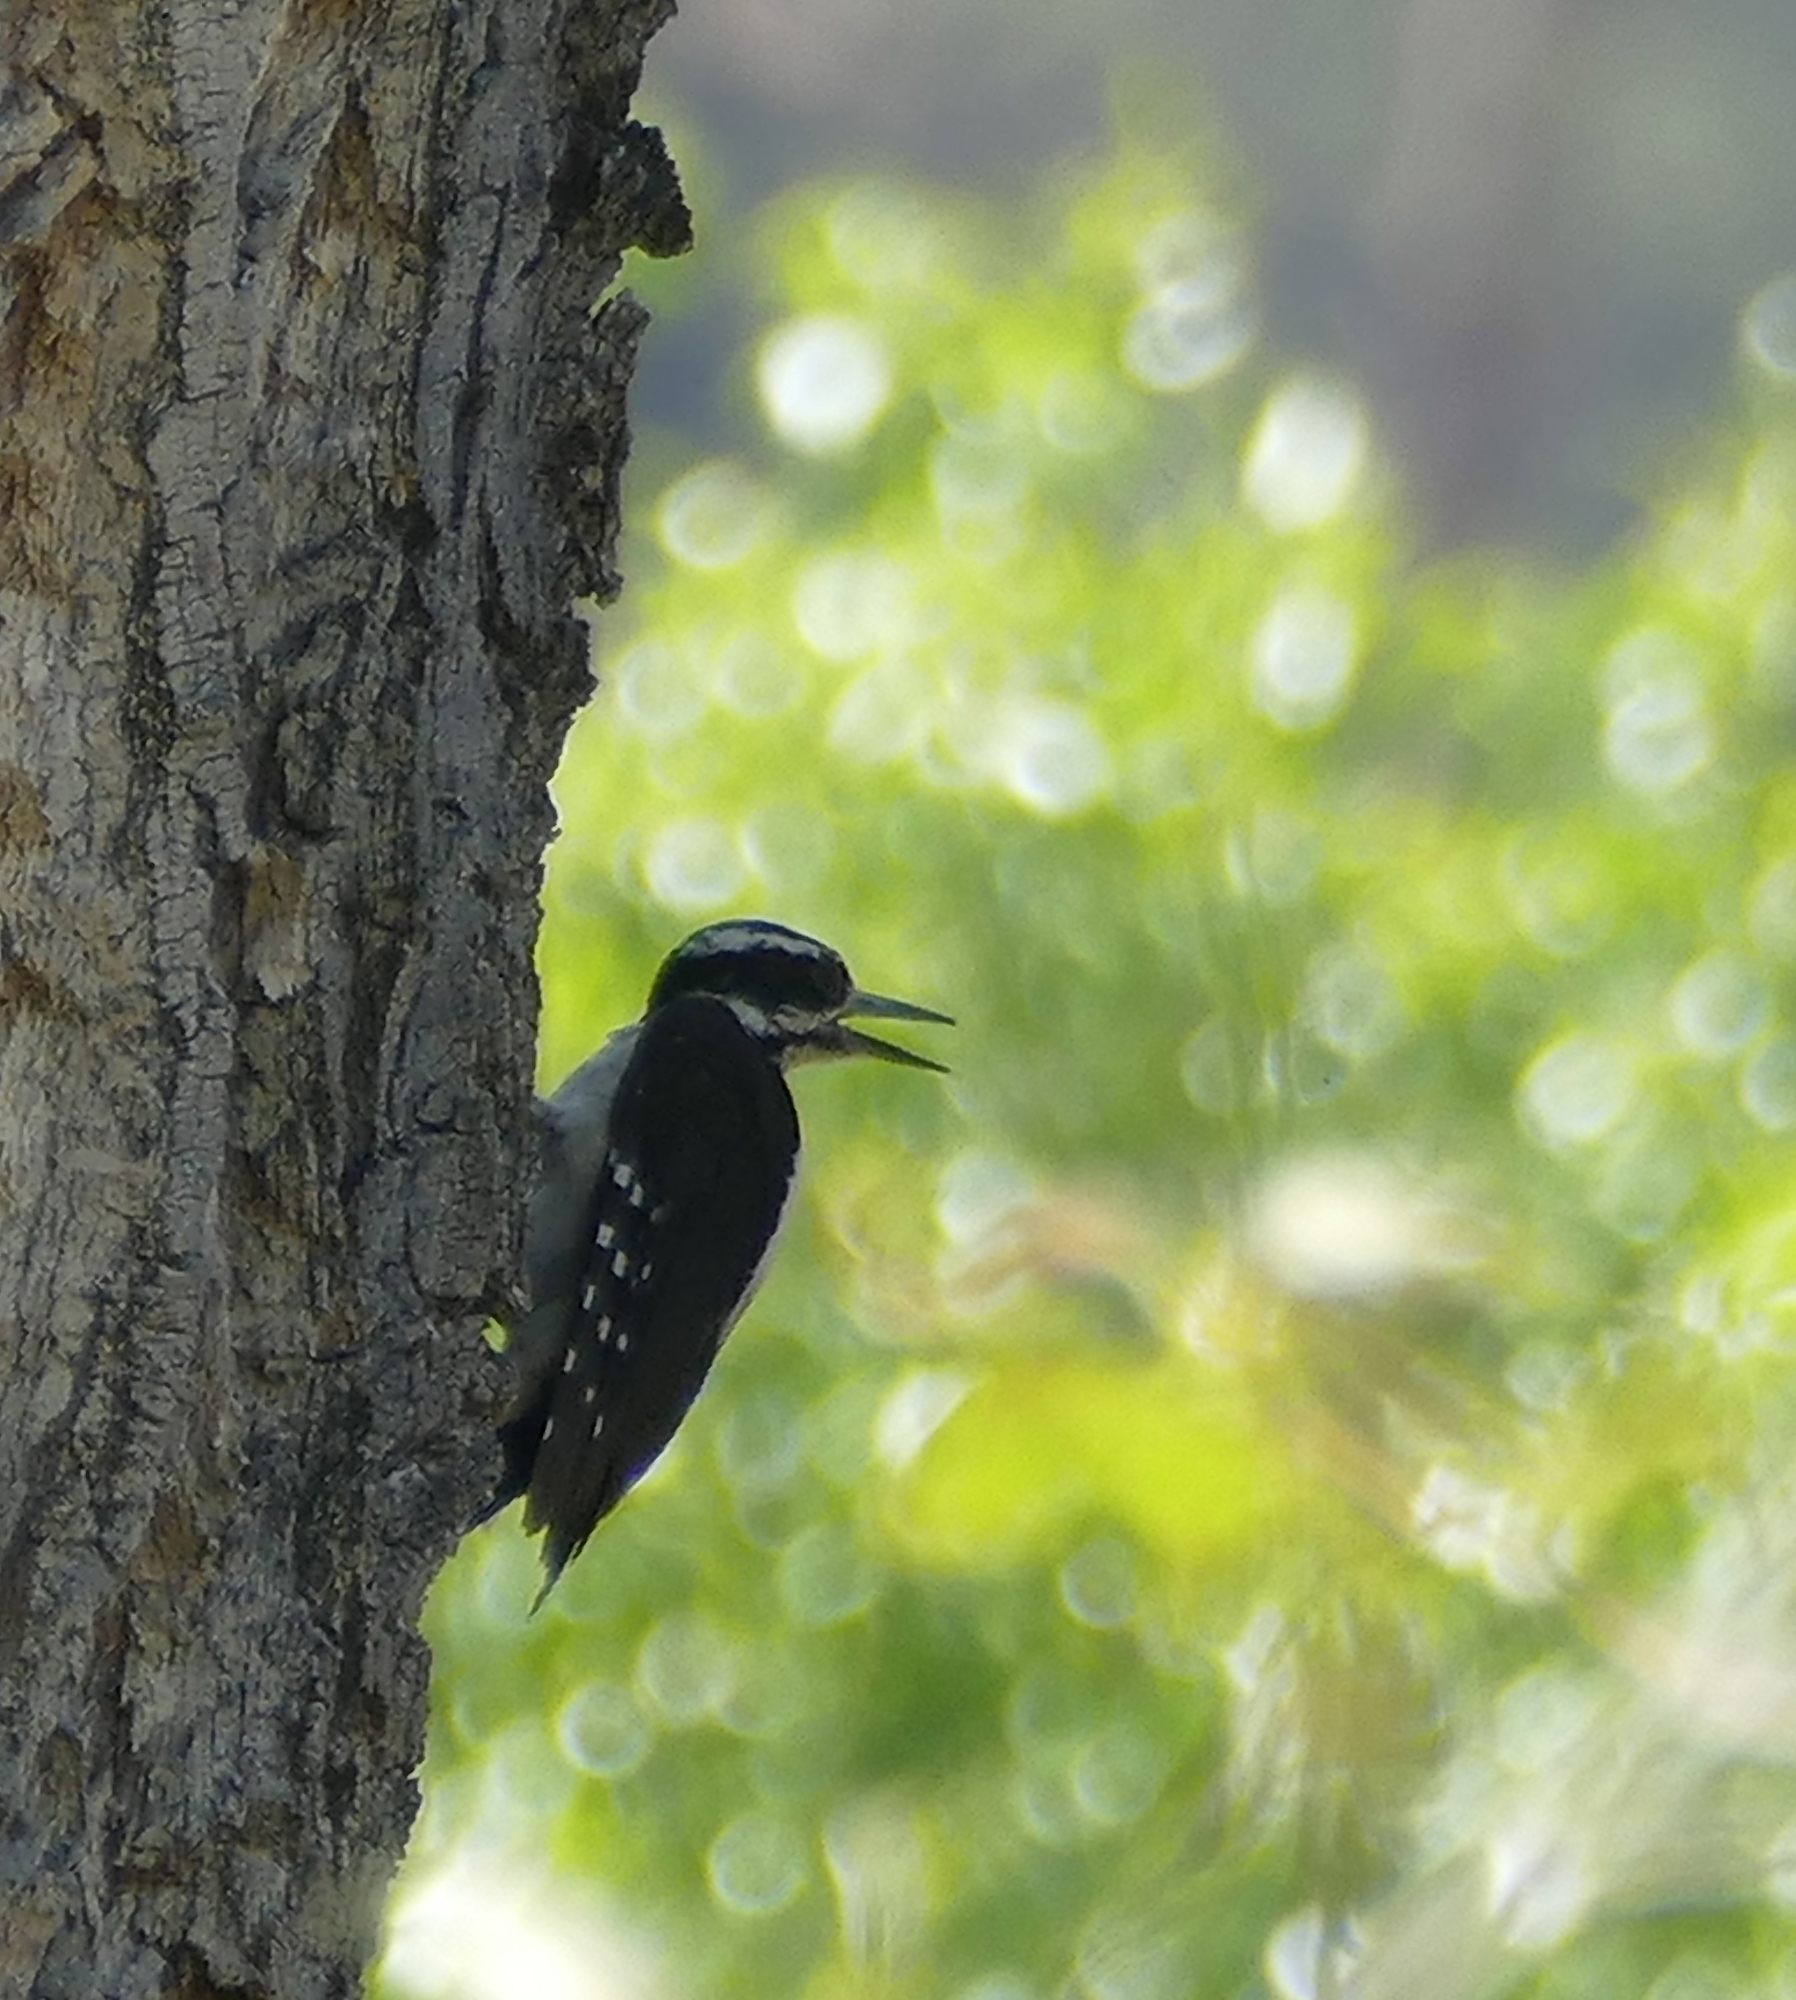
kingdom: Animalia
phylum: Chordata
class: Aves
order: Piciformes
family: Picidae
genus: Leuconotopicus
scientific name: Leuconotopicus villosus
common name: Hairy woodpecker
